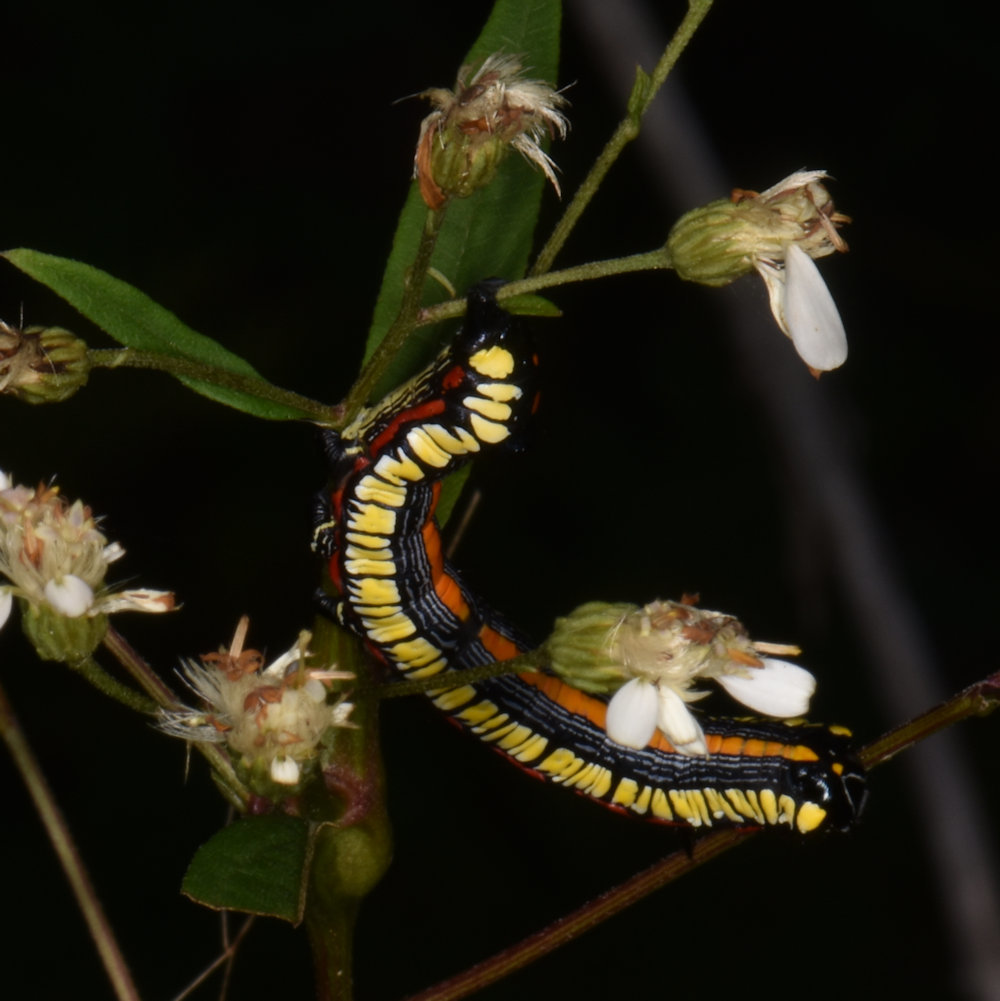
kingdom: Animalia
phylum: Arthropoda
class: Insecta
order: Lepidoptera
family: Noctuidae
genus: Cucullia
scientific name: Cucullia convexipennis
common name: Brown-hooded owlet
